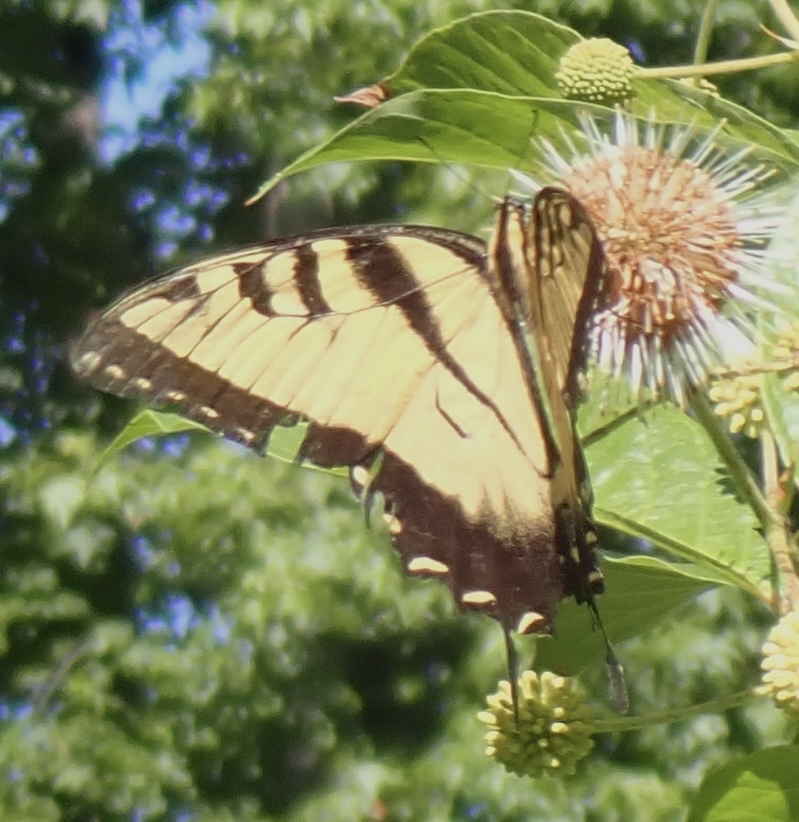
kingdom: Animalia
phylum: Arthropoda
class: Insecta
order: Lepidoptera
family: Papilionidae
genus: Papilio
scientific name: Papilio glaucus
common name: Tiger swallowtail
